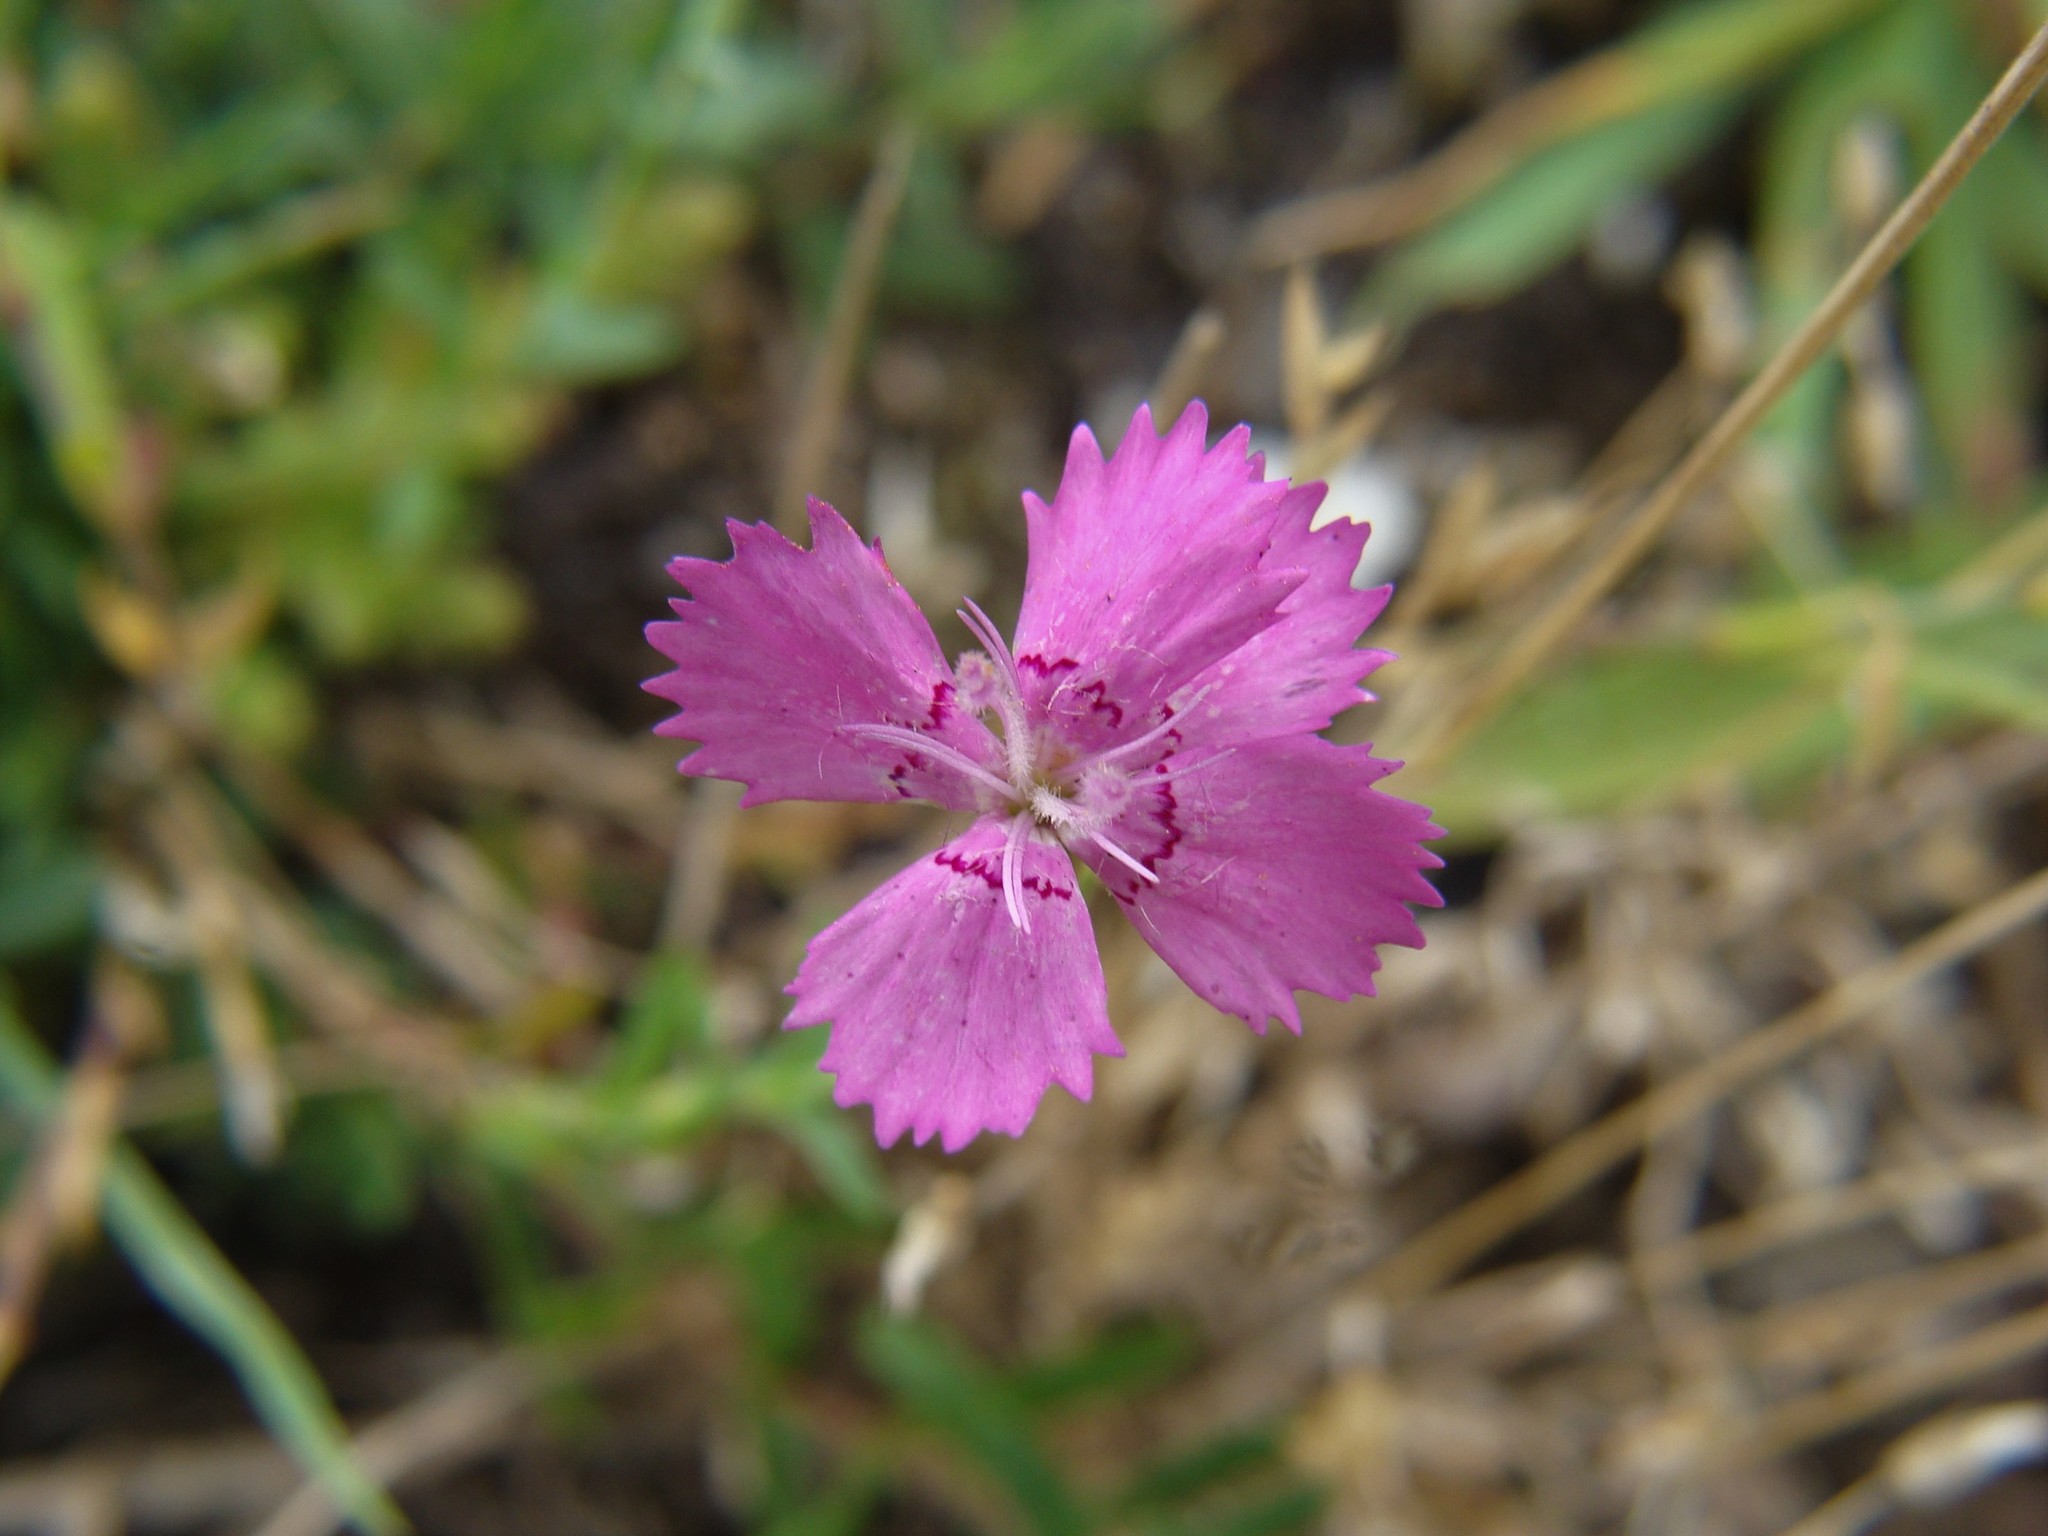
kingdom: Plantae
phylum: Tracheophyta
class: Magnoliopsida
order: Caryophyllales
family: Caryophyllaceae
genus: Dianthus
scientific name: Dianthus deltoides
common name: Maiden pink
